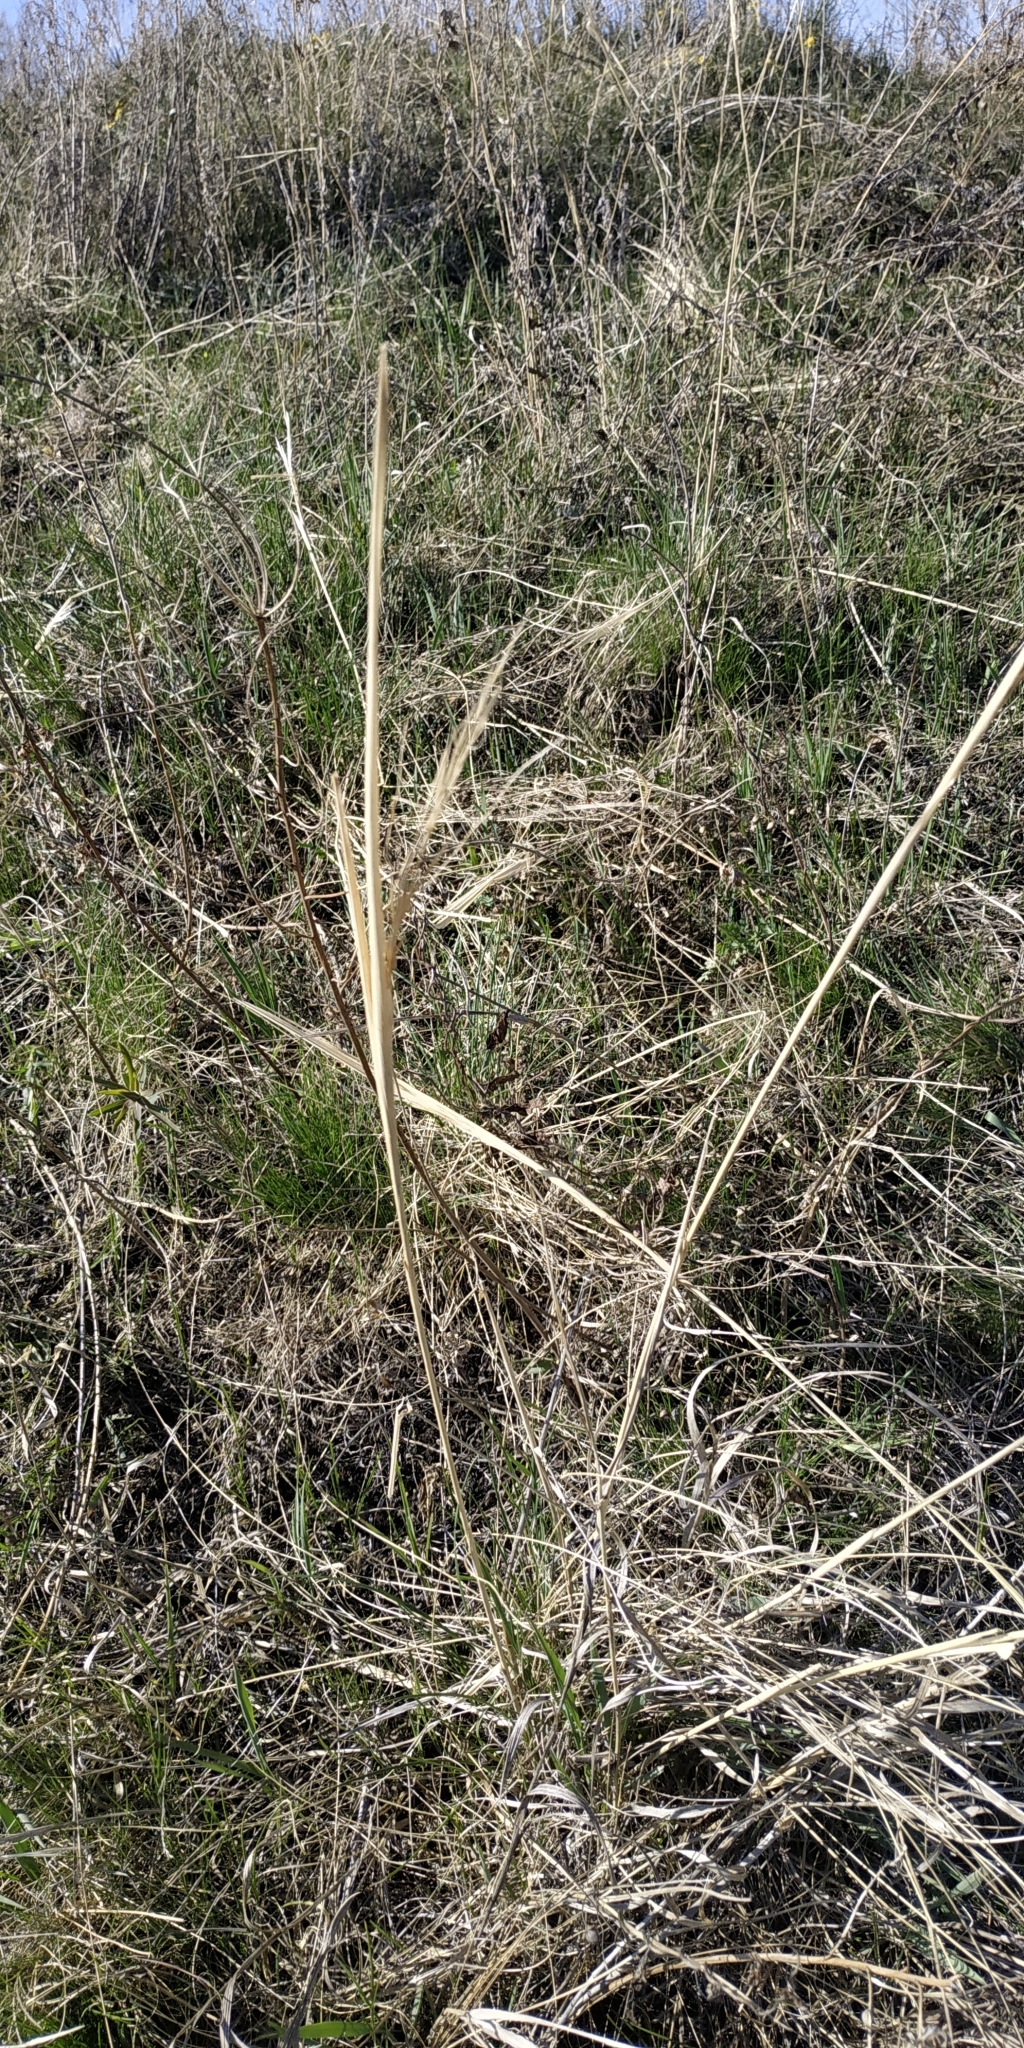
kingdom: Plantae
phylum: Tracheophyta
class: Liliopsida
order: Poales
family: Poaceae
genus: Stipa
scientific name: Stipa capillata
